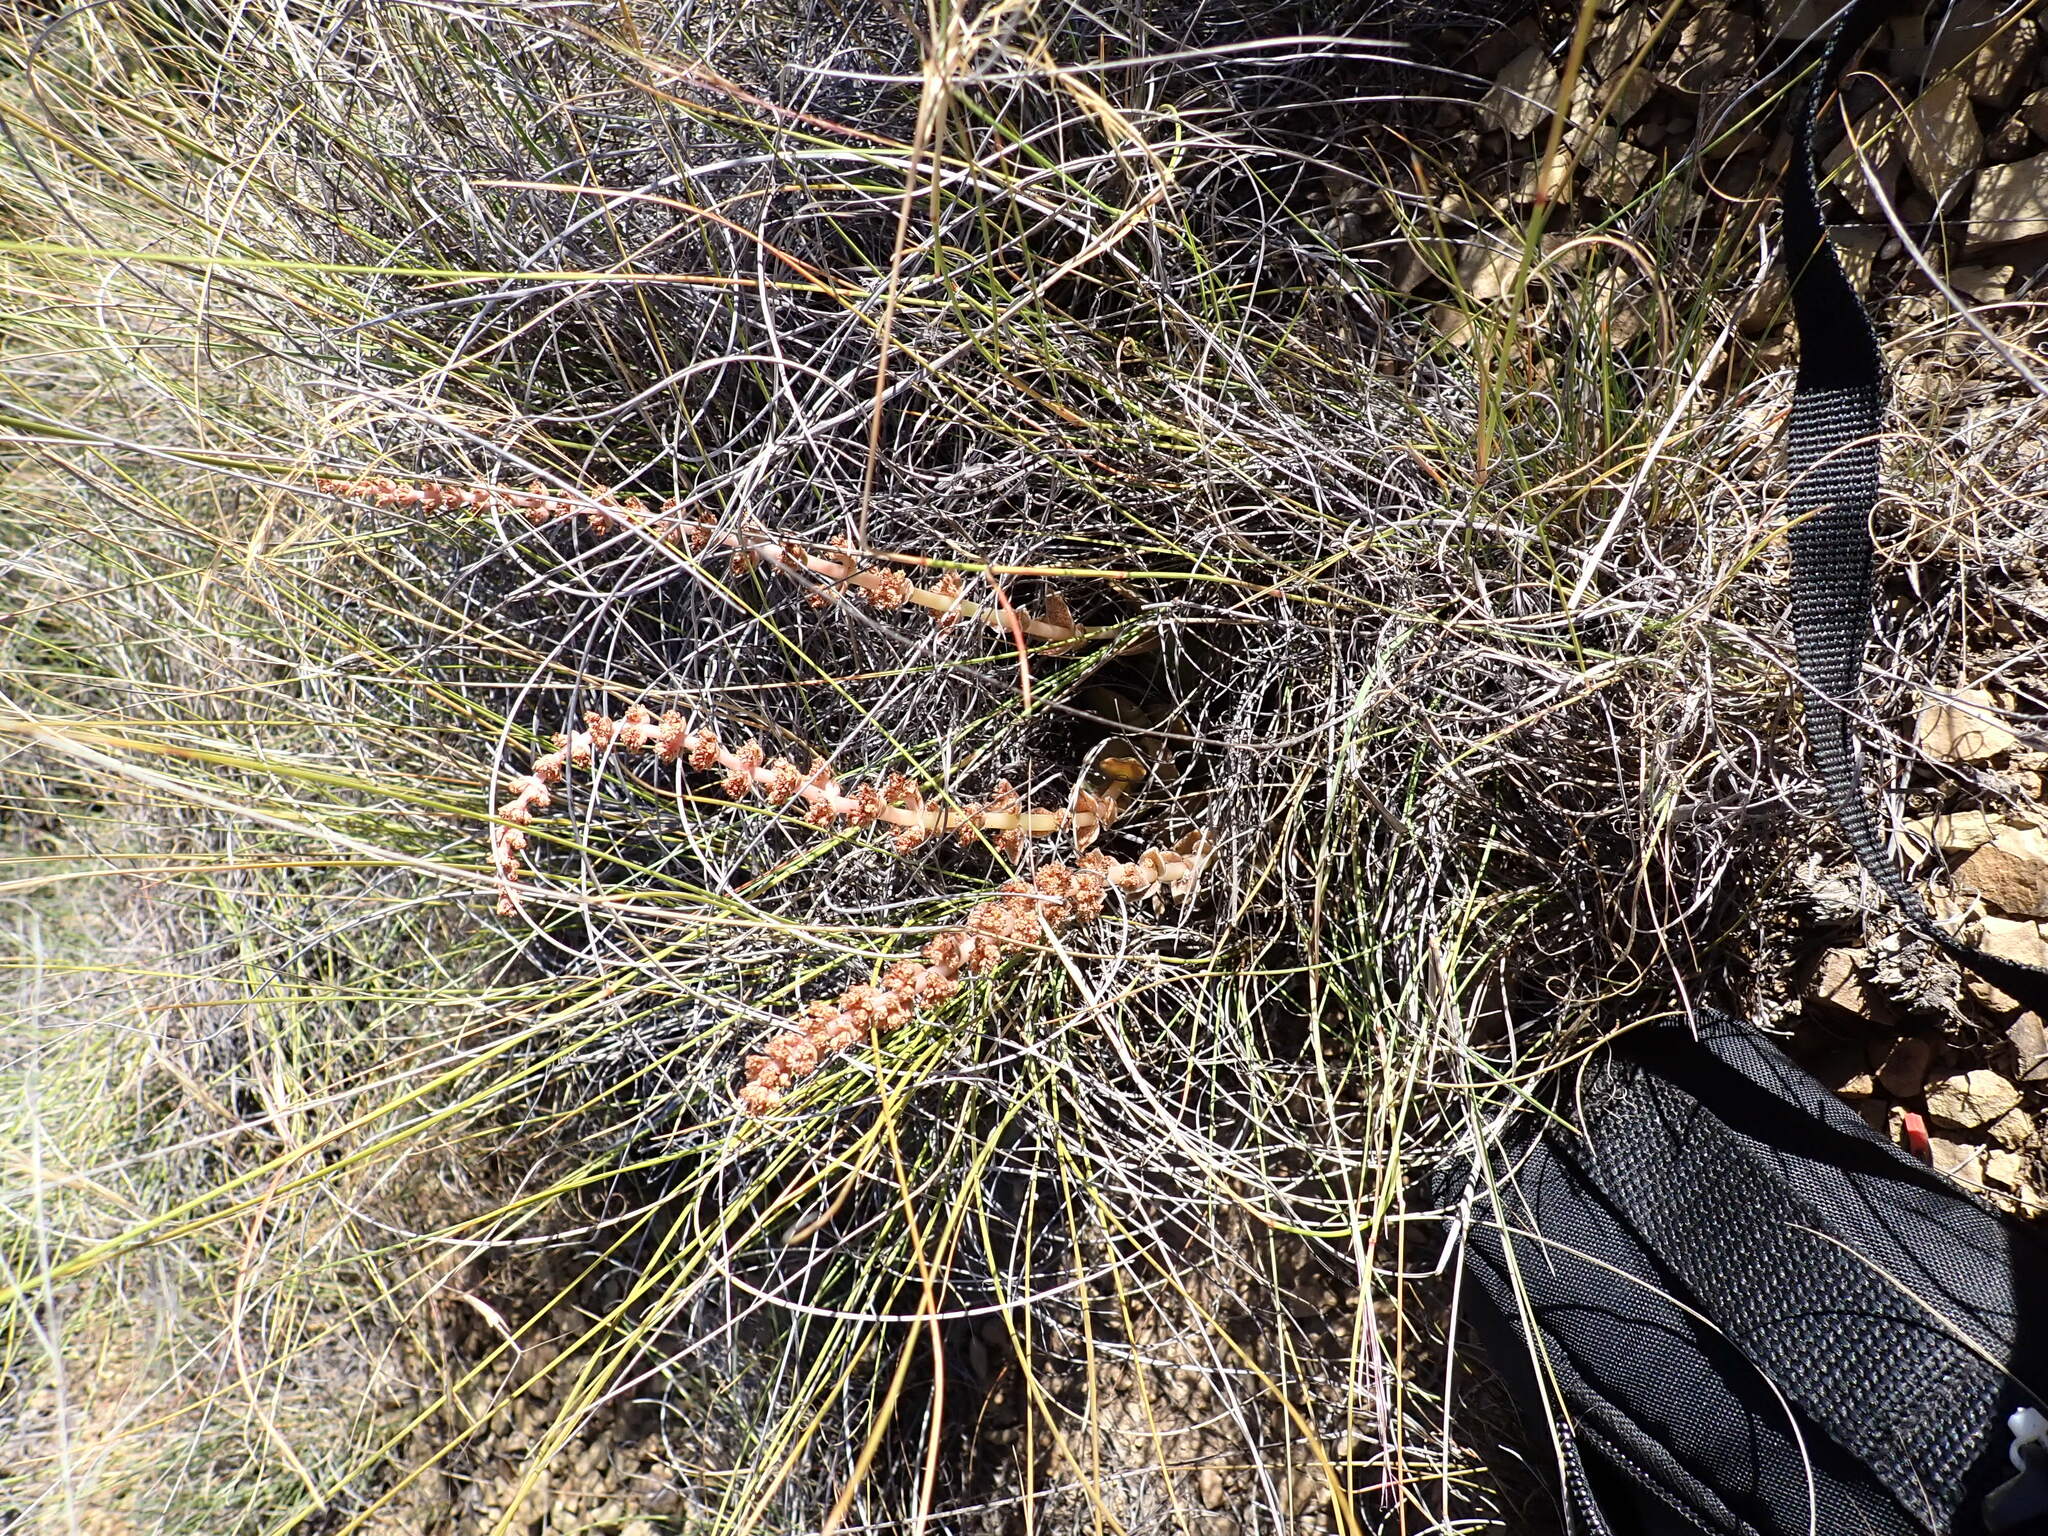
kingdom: Plantae
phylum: Tracheophyta
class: Magnoliopsida
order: Saxifragales
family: Crassulaceae
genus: Crassula
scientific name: Crassula capitella
